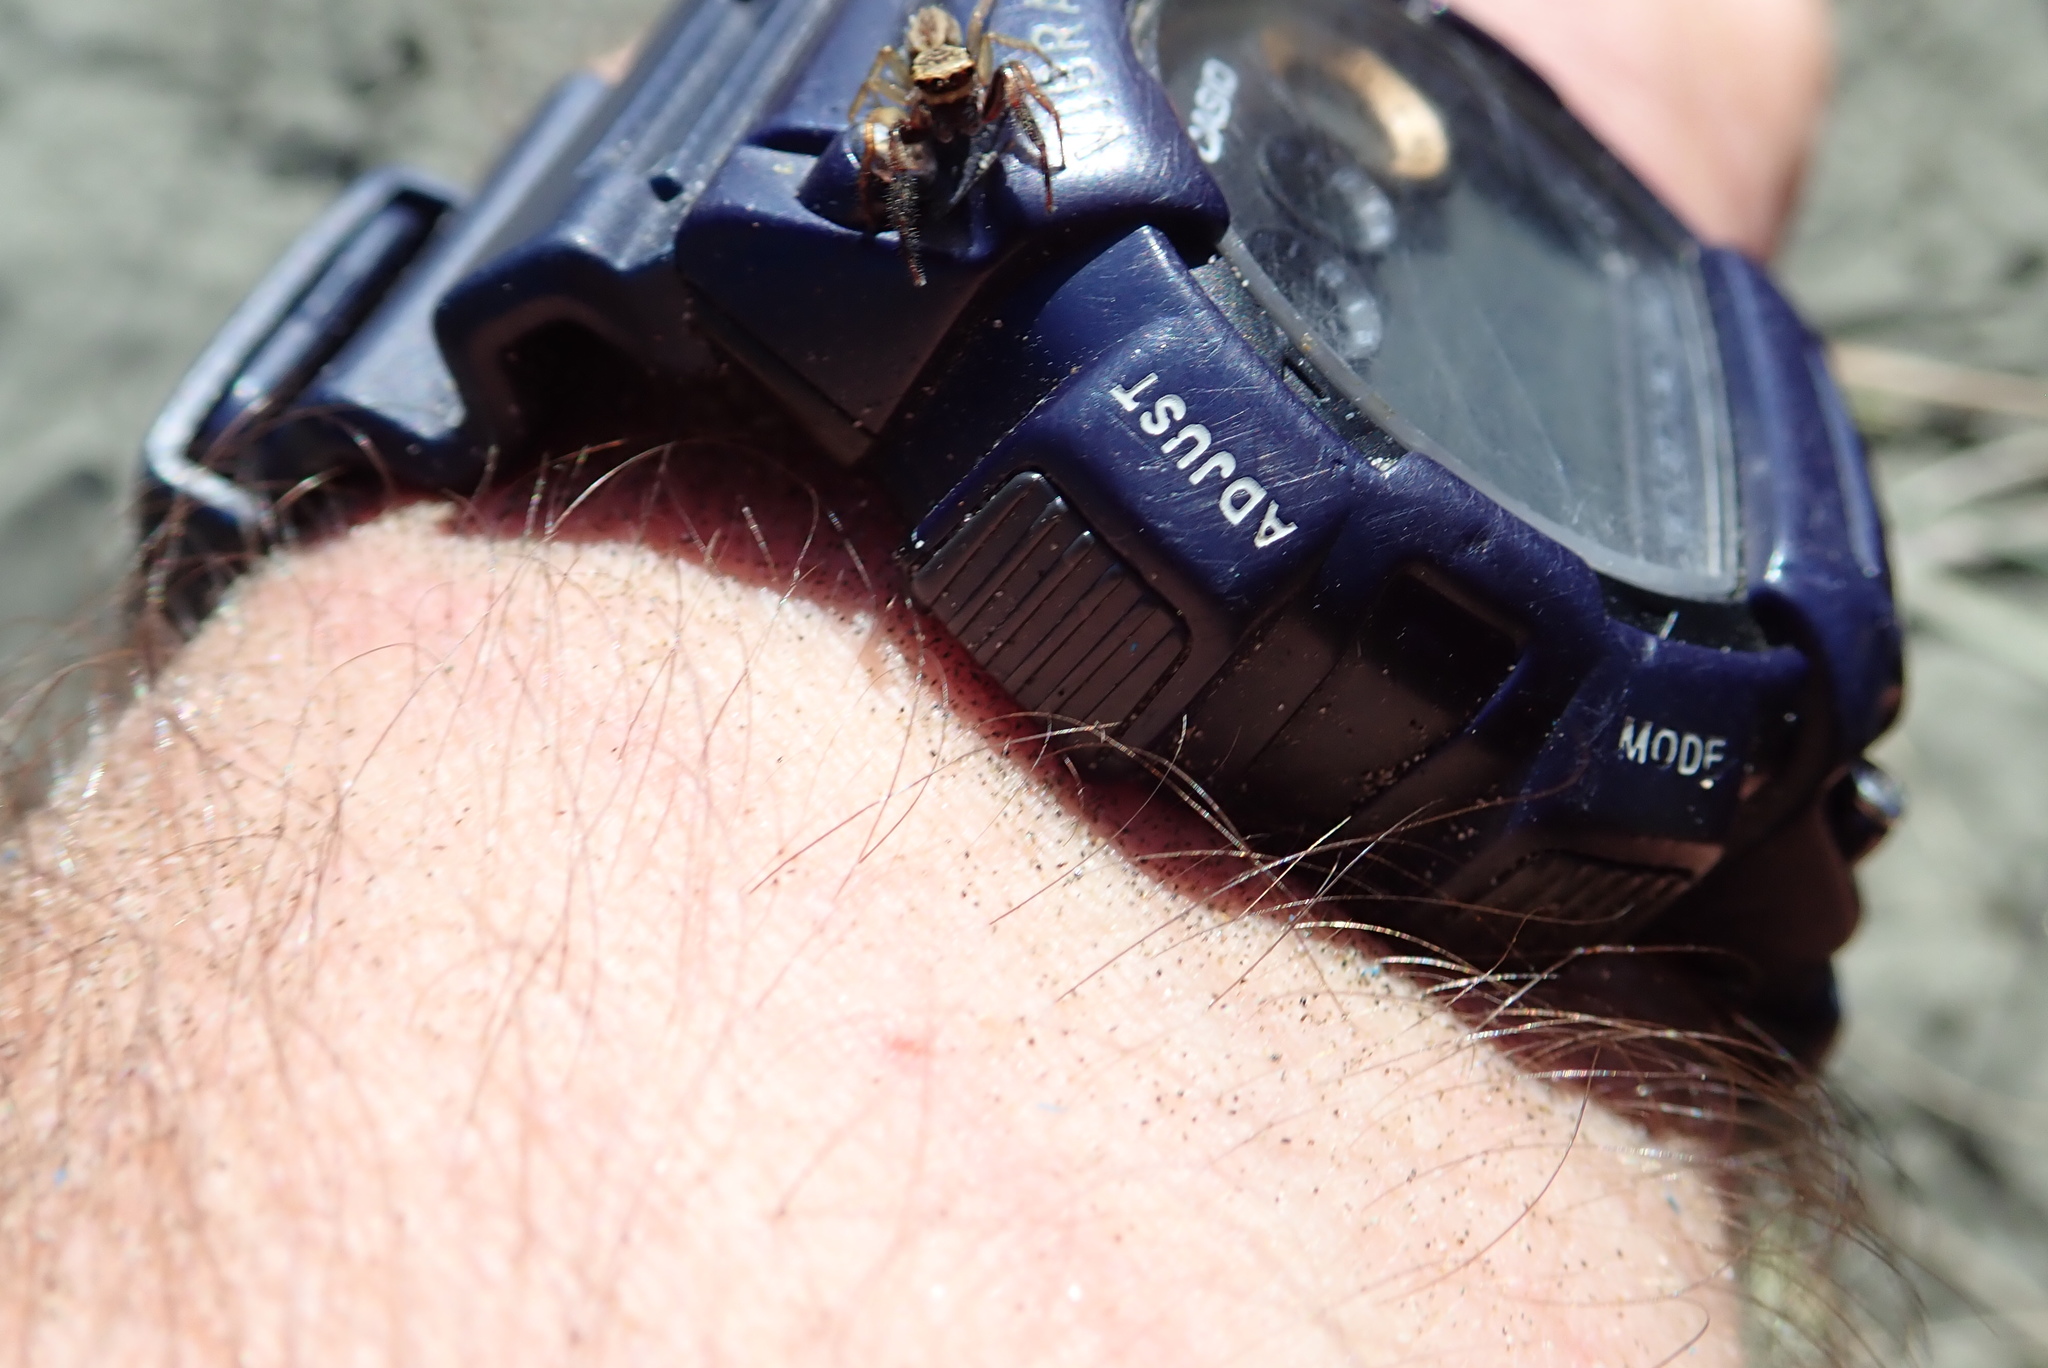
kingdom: Animalia
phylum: Arthropoda
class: Arachnida
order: Araneae
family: Salticidae
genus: Trite
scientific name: Trite auricoma
